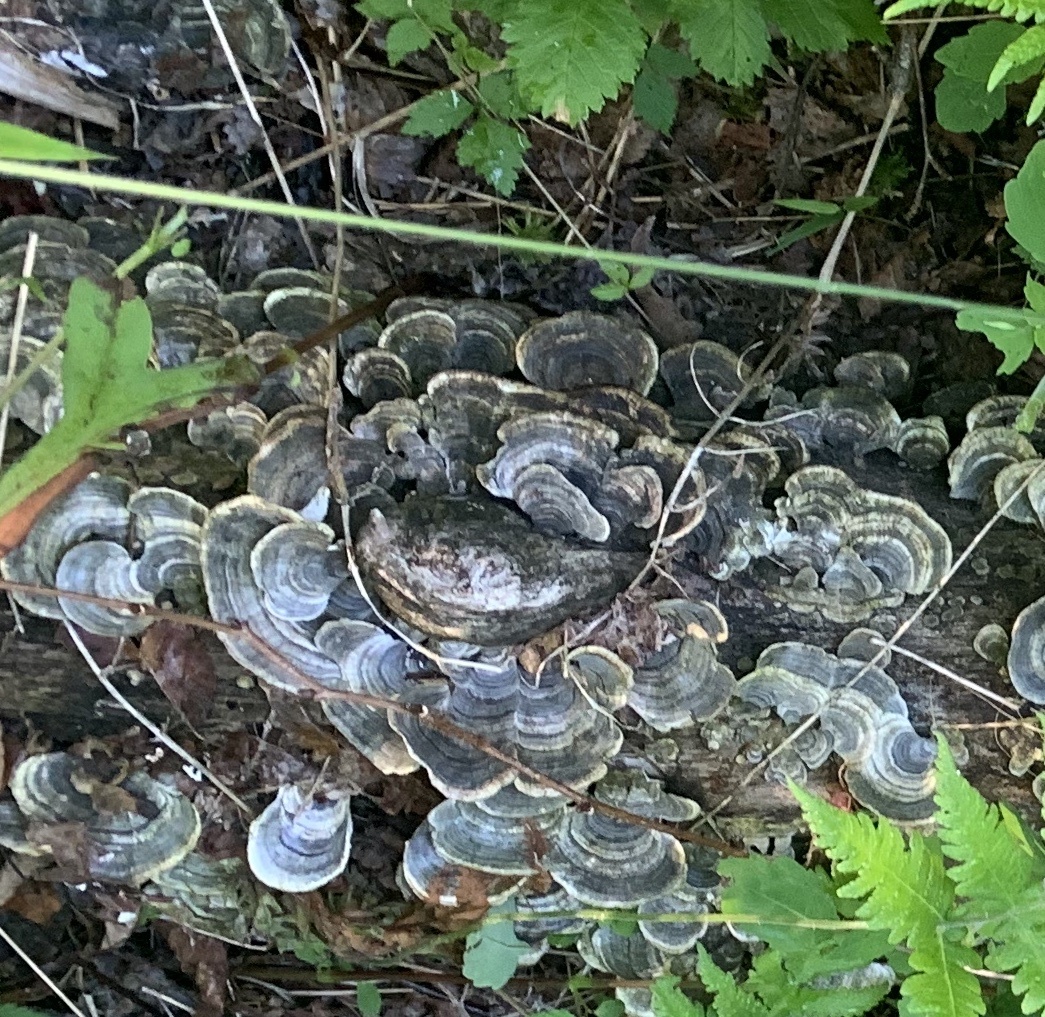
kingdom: Fungi
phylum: Basidiomycota
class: Agaricomycetes
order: Polyporales
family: Polyporaceae
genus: Trametes
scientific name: Trametes versicolor
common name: Turkeytail
